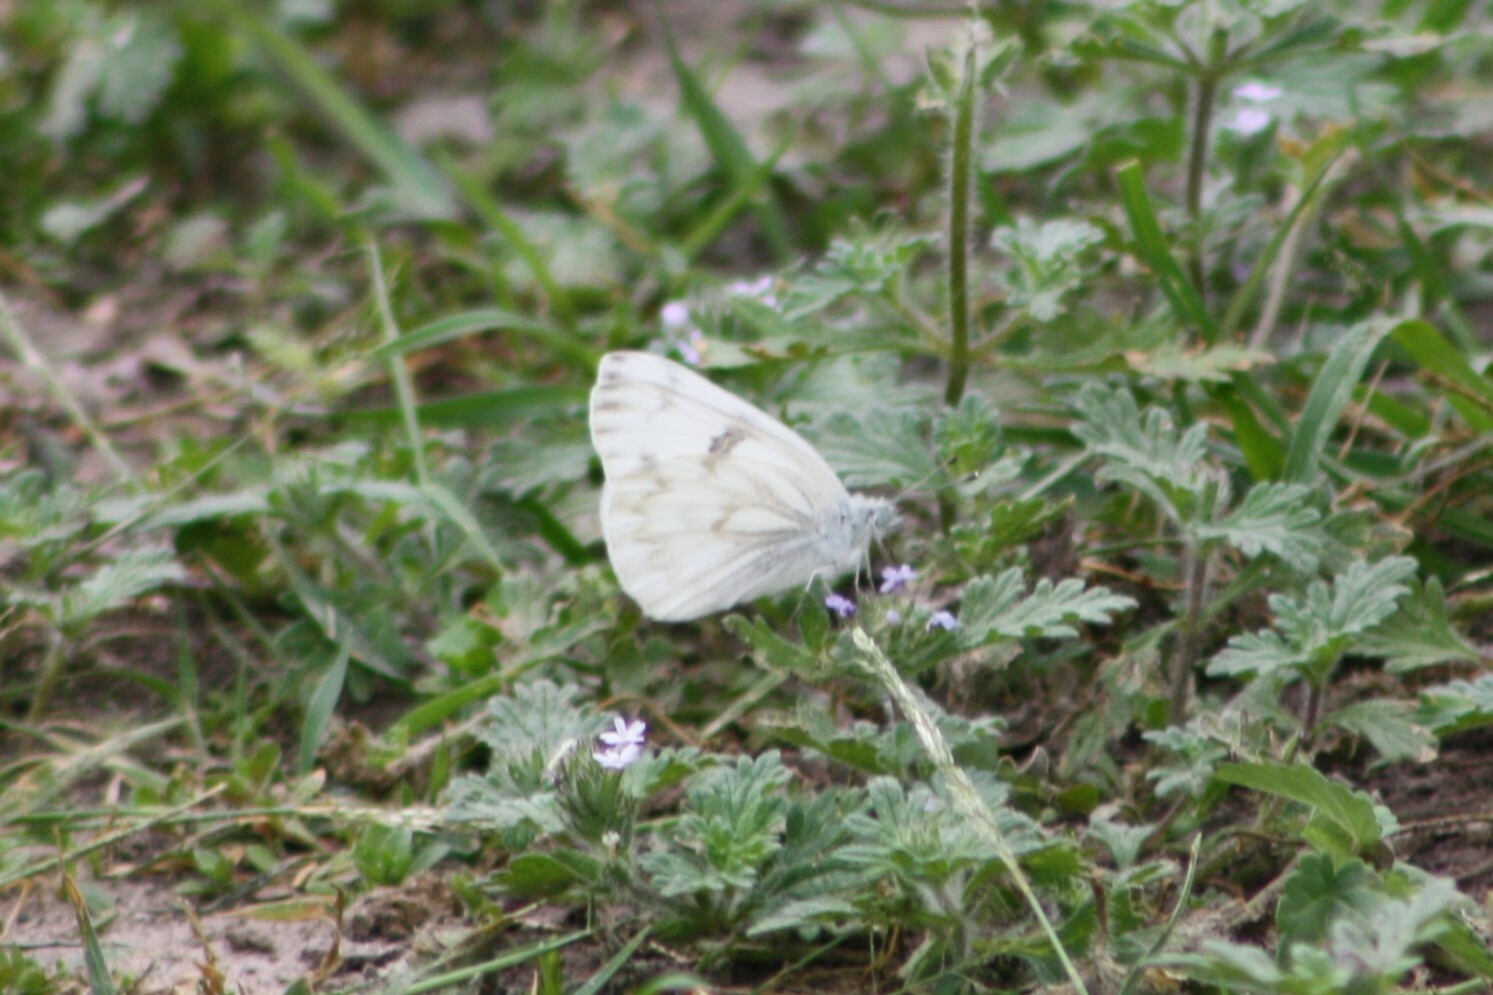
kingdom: Animalia
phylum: Arthropoda
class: Insecta
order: Lepidoptera
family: Pieridae
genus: Pontia
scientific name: Pontia protodice
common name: Checkered white
